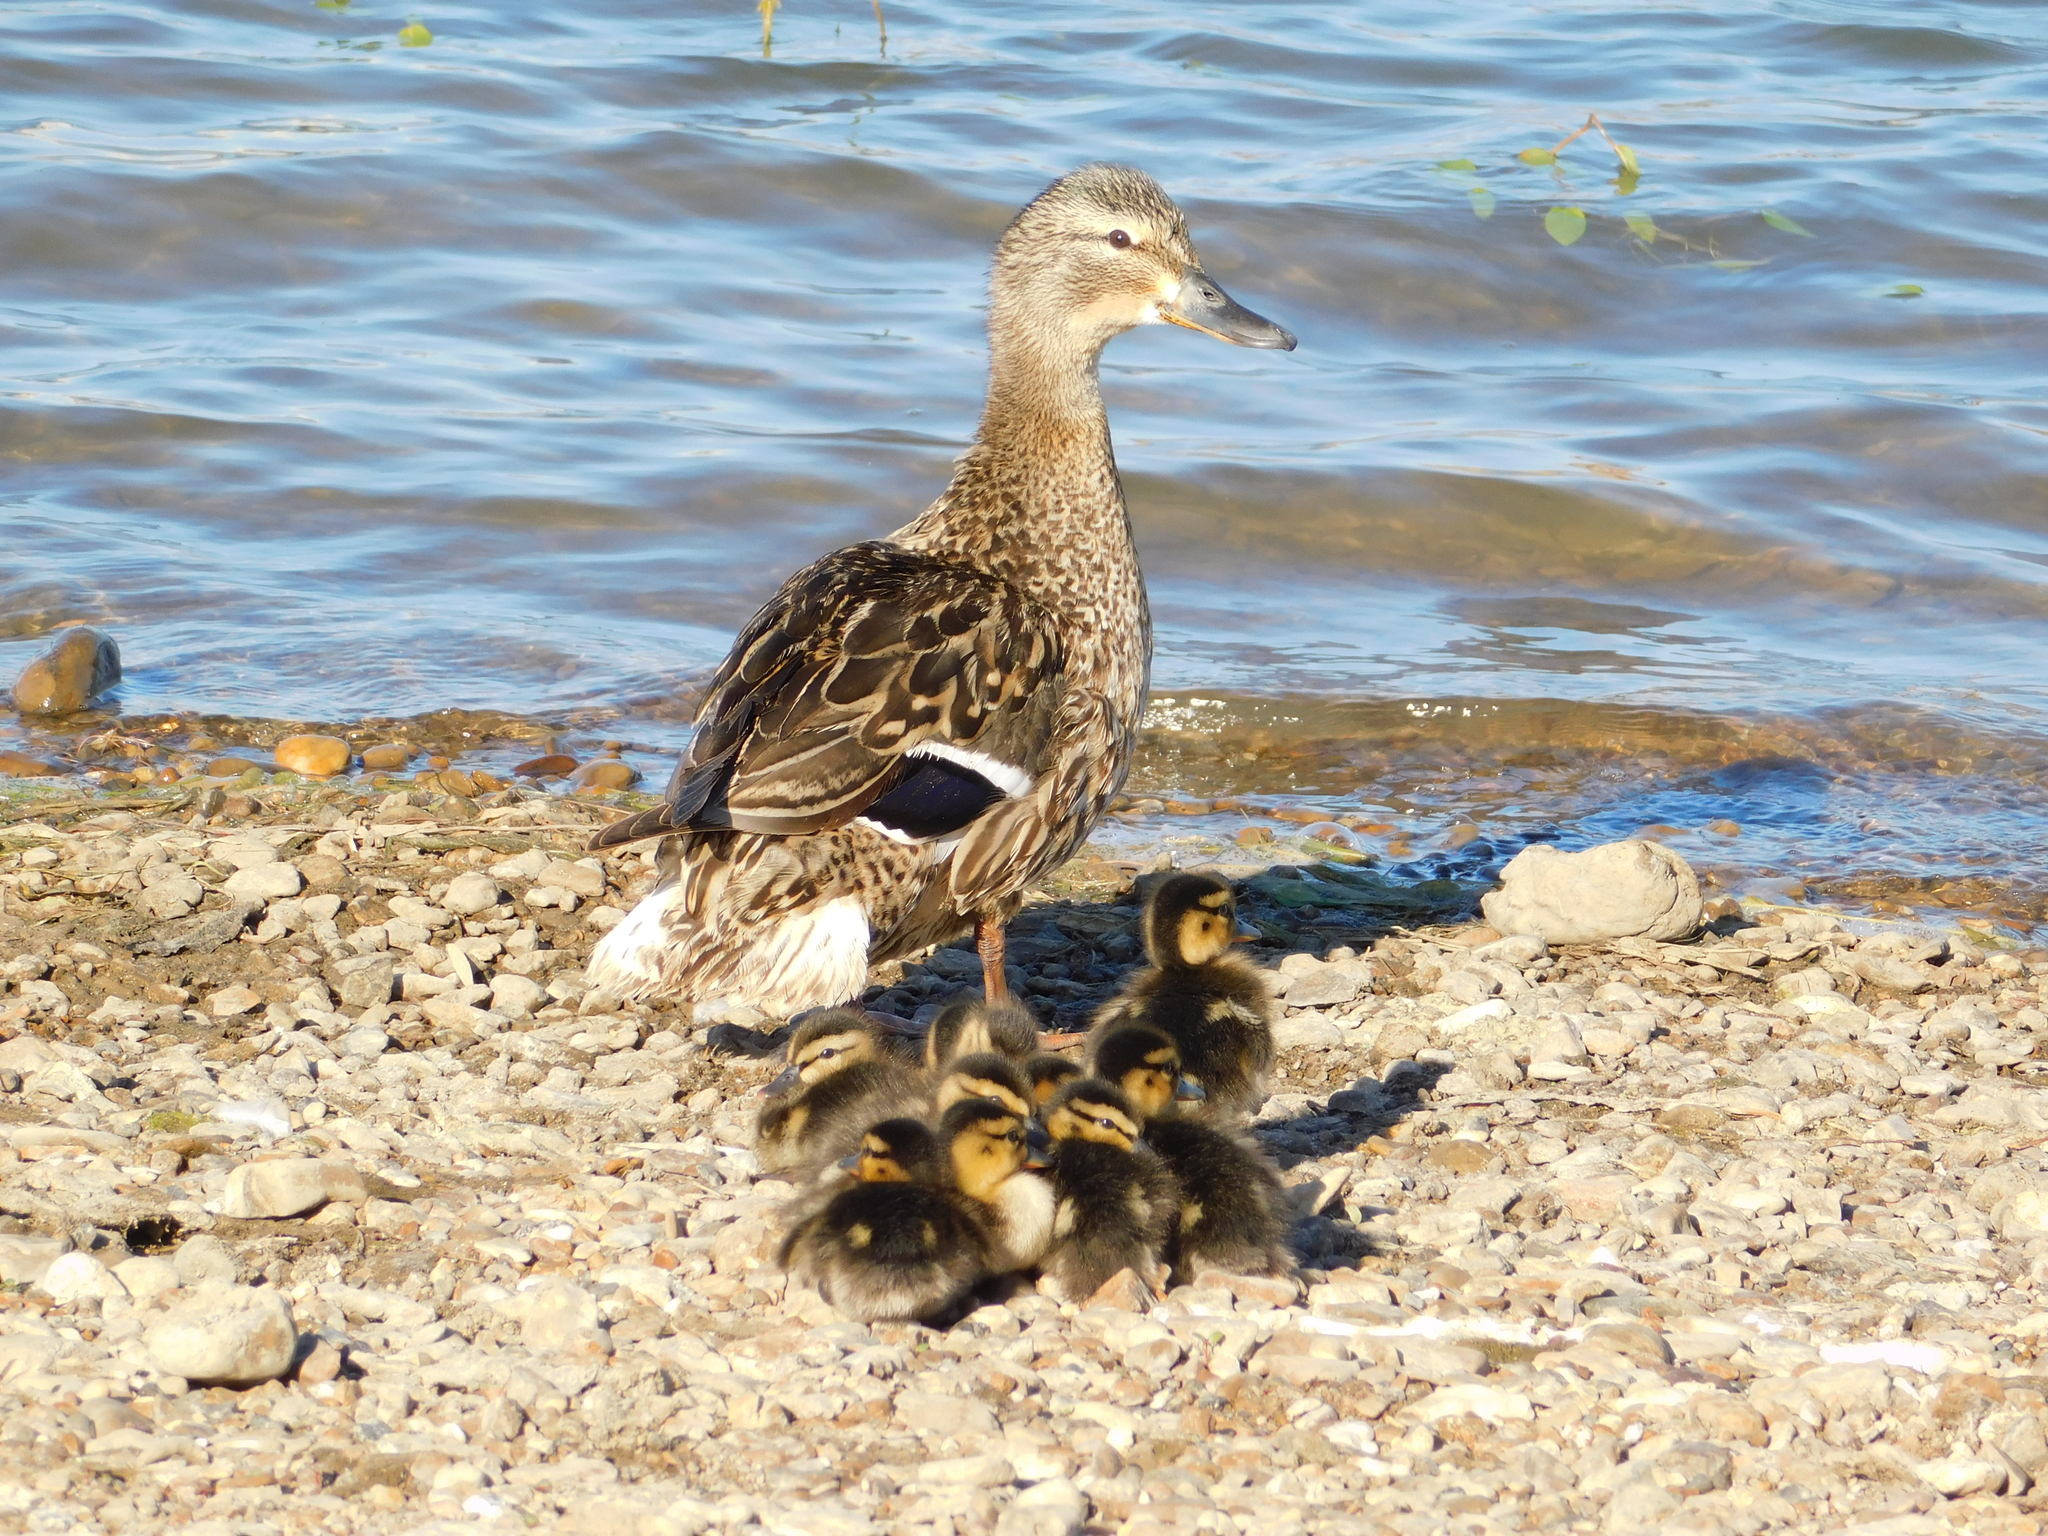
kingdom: Animalia
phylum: Chordata
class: Aves
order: Anseriformes
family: Anatidae
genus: Anas
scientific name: Anas platyrhynchos
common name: Mallard
